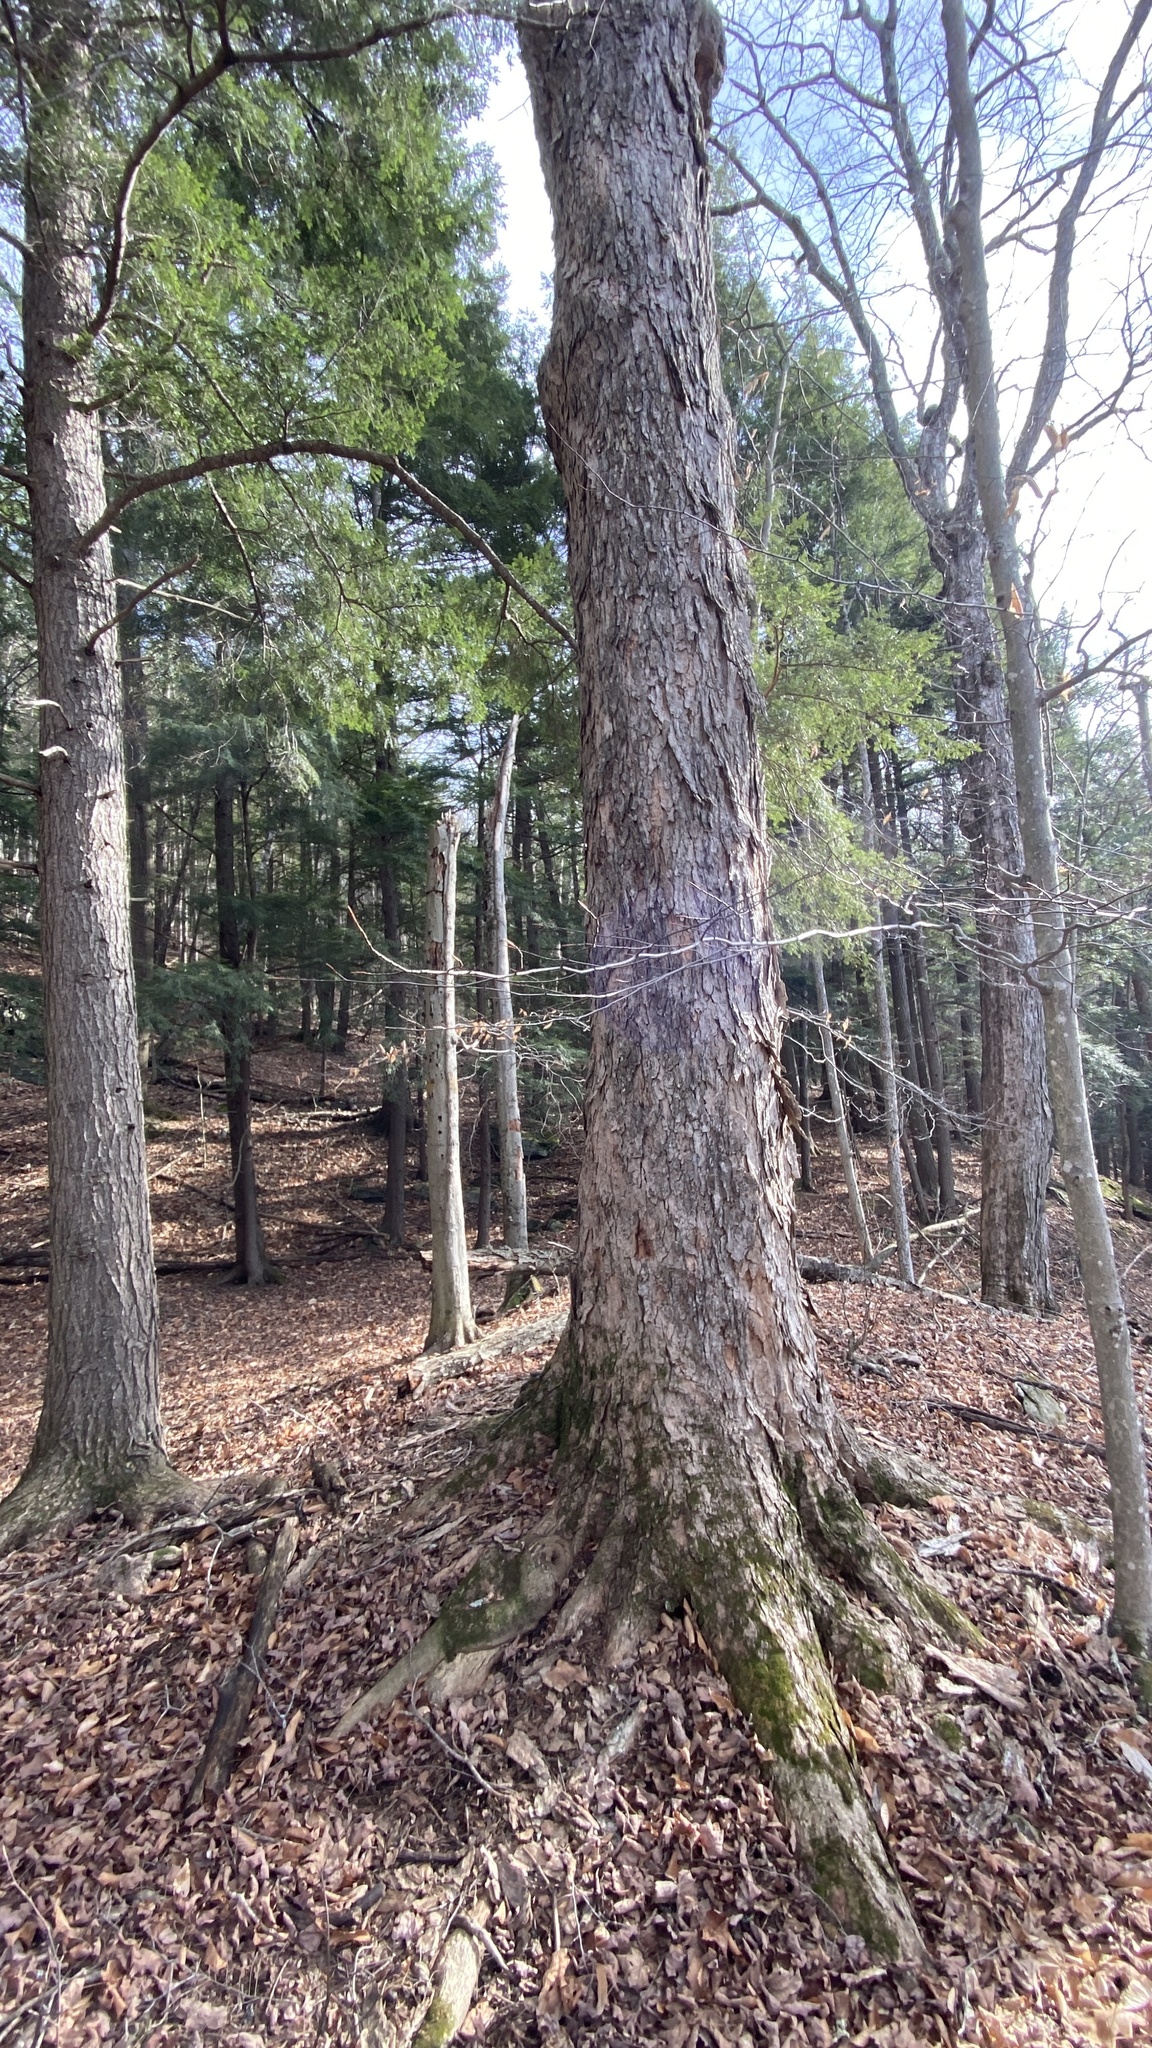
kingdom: Plantae
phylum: Tracheophyta
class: Magnoliopsida
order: Sapindales
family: Sapindaceae
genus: Acer
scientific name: Acer saccharum
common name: Sugar maple
